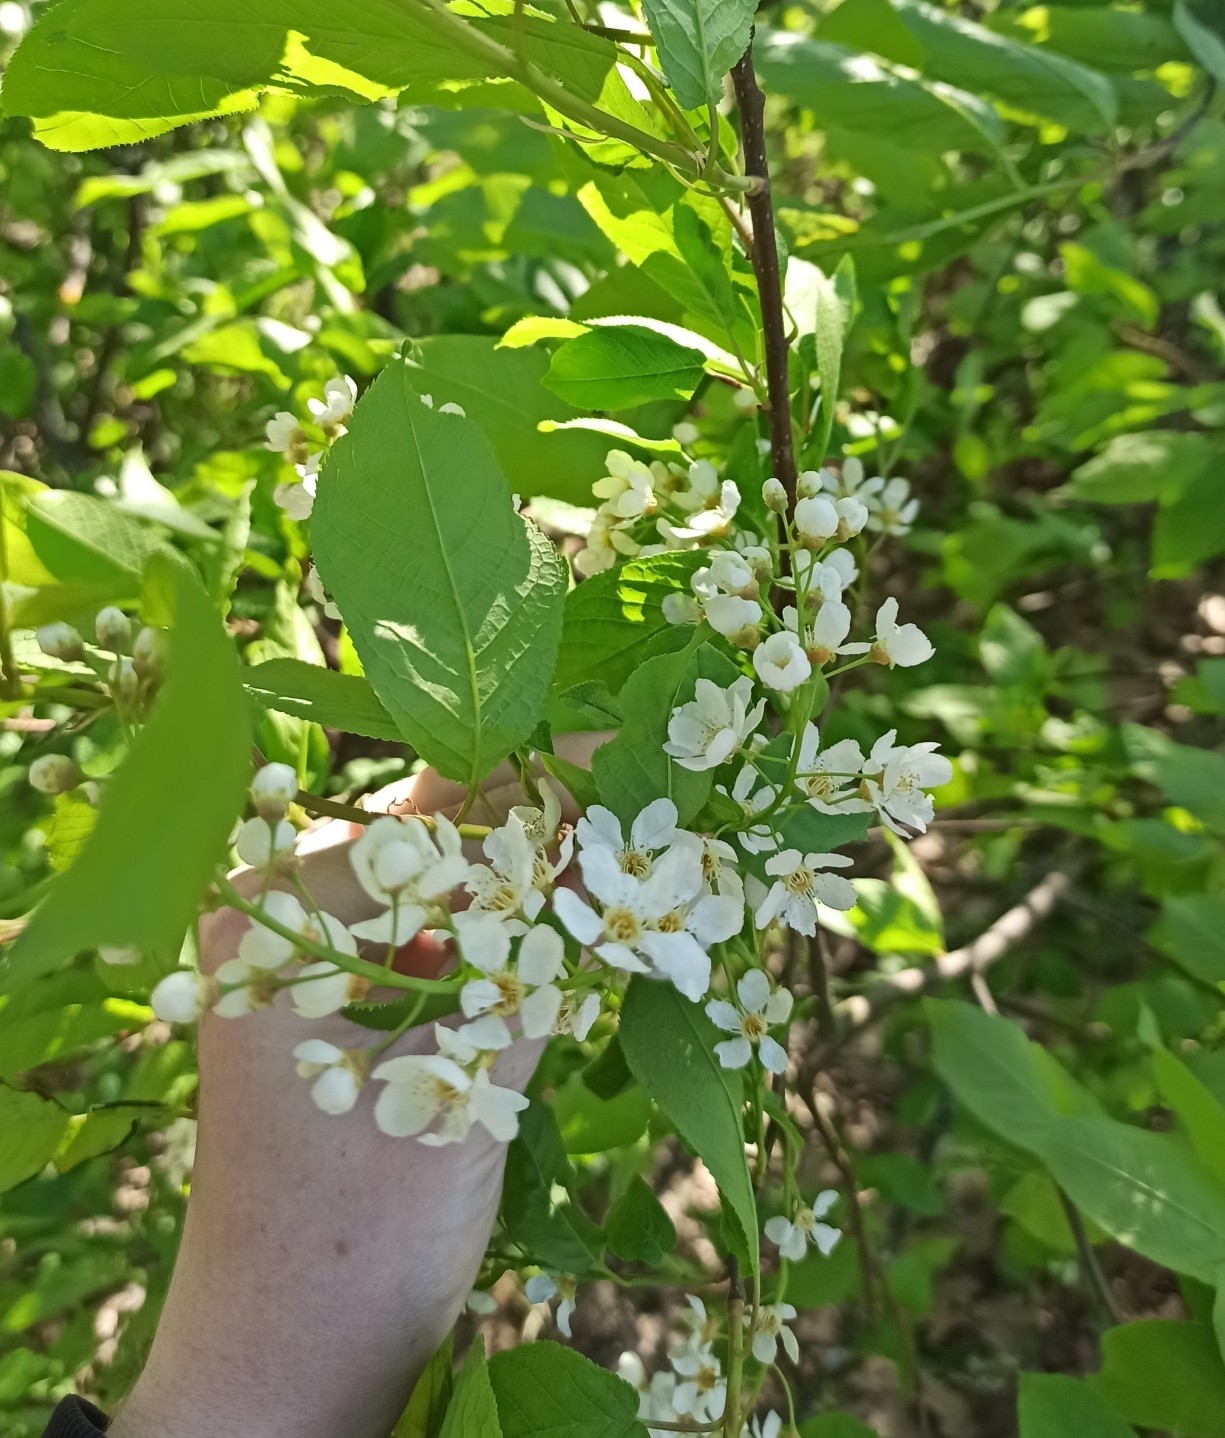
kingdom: Plantae
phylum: Tracheophyta
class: Magnoliopsida
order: Rosales
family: Rosaceae
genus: Prunus
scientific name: Prunus padus
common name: Bird cherry
